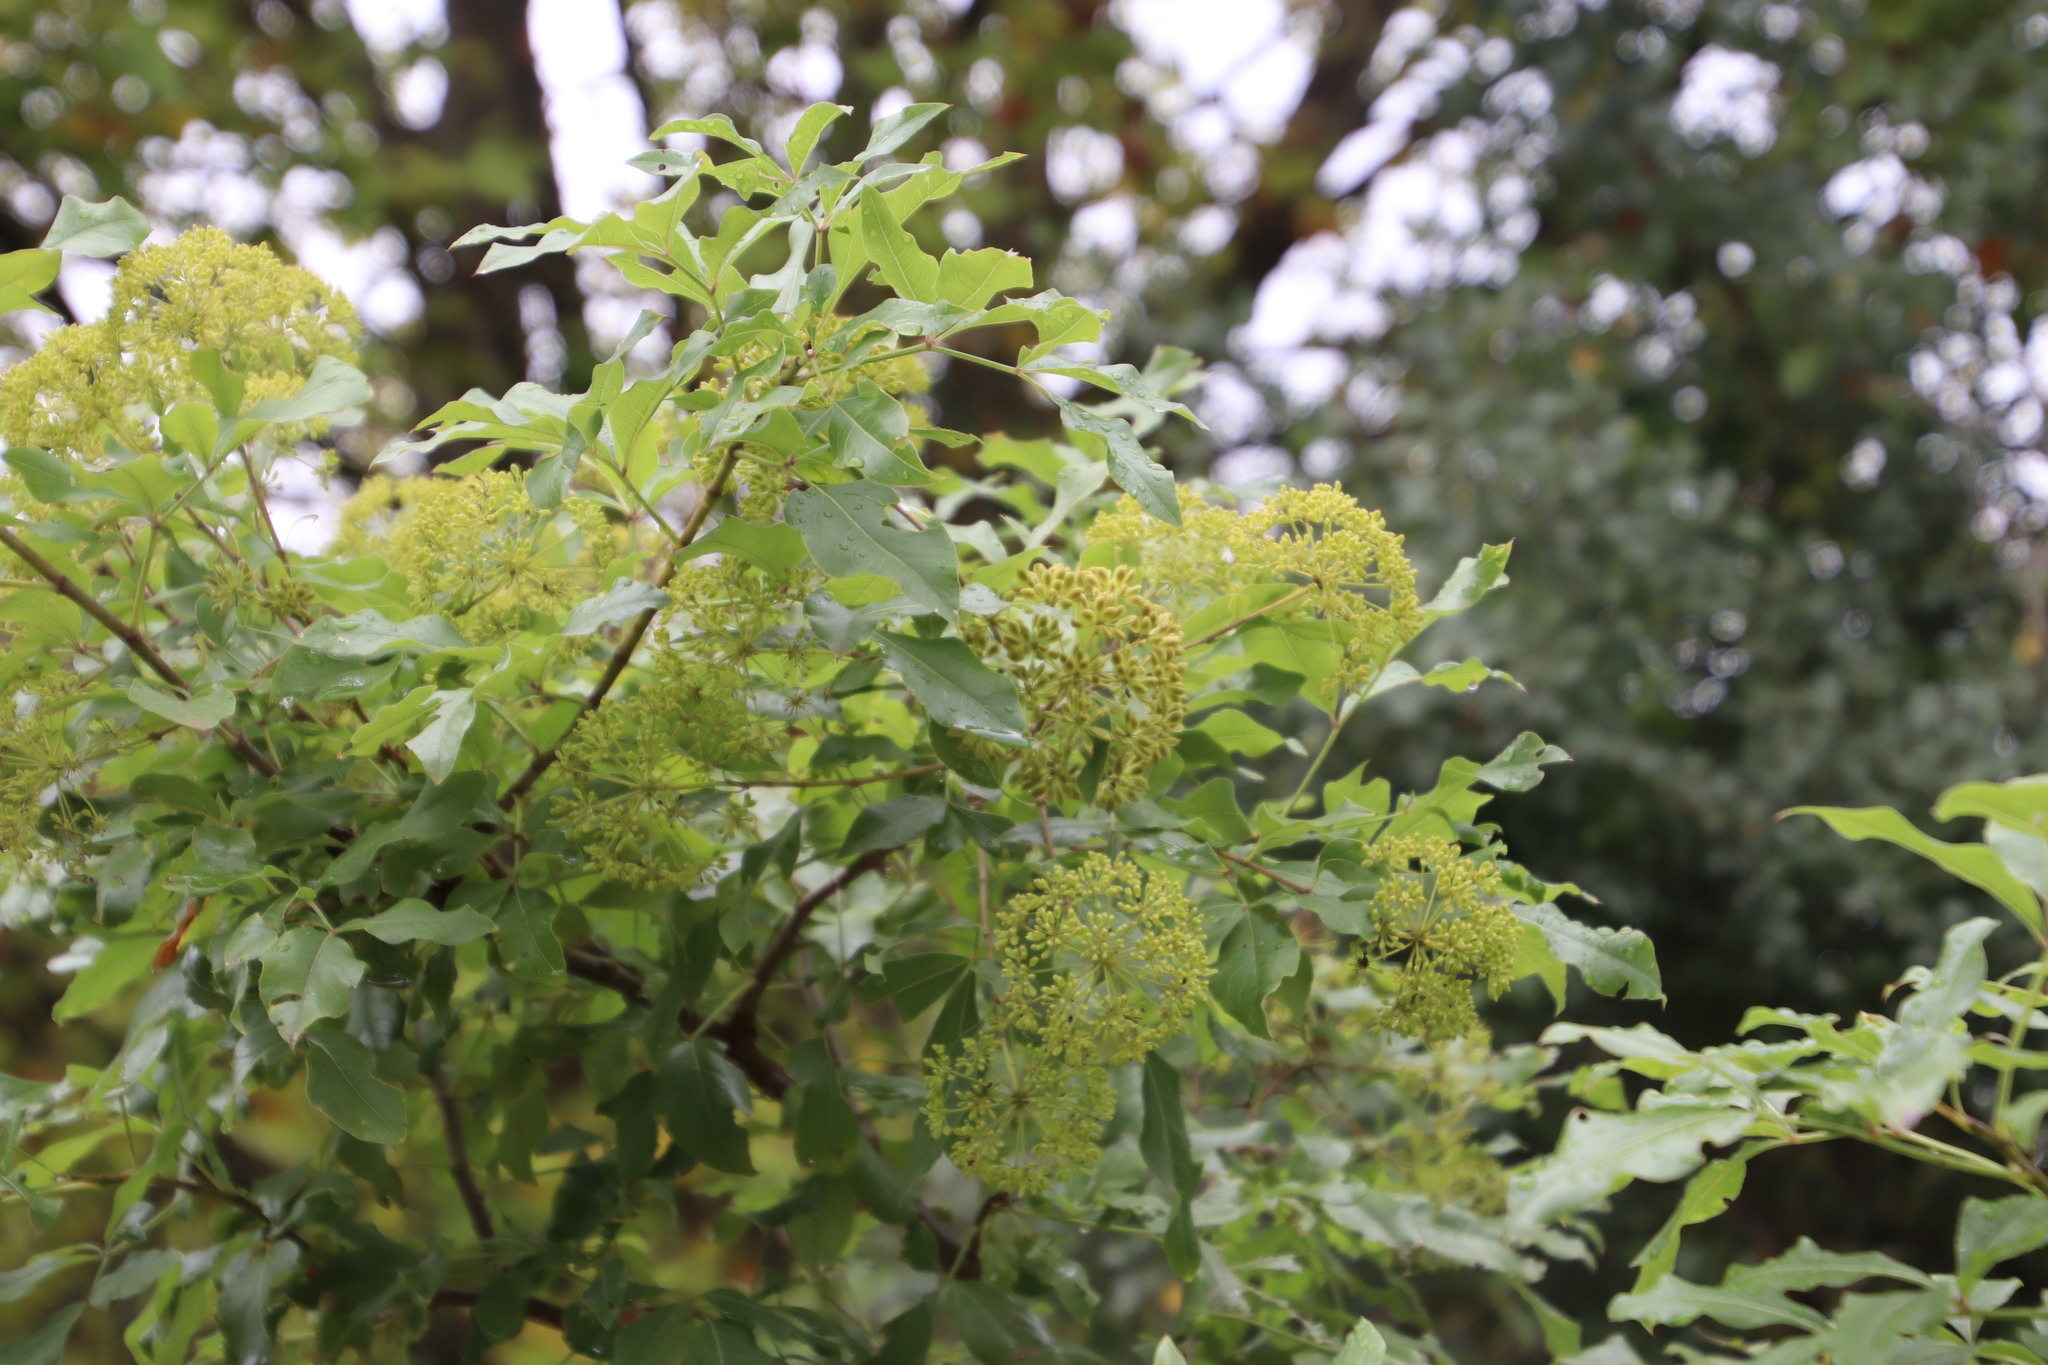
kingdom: Plantae
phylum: Tracheophyta
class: Magnoliopsida
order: Apiales
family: Apiaceae
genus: Heteromorpha
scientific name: Heteromorpha arborescens
